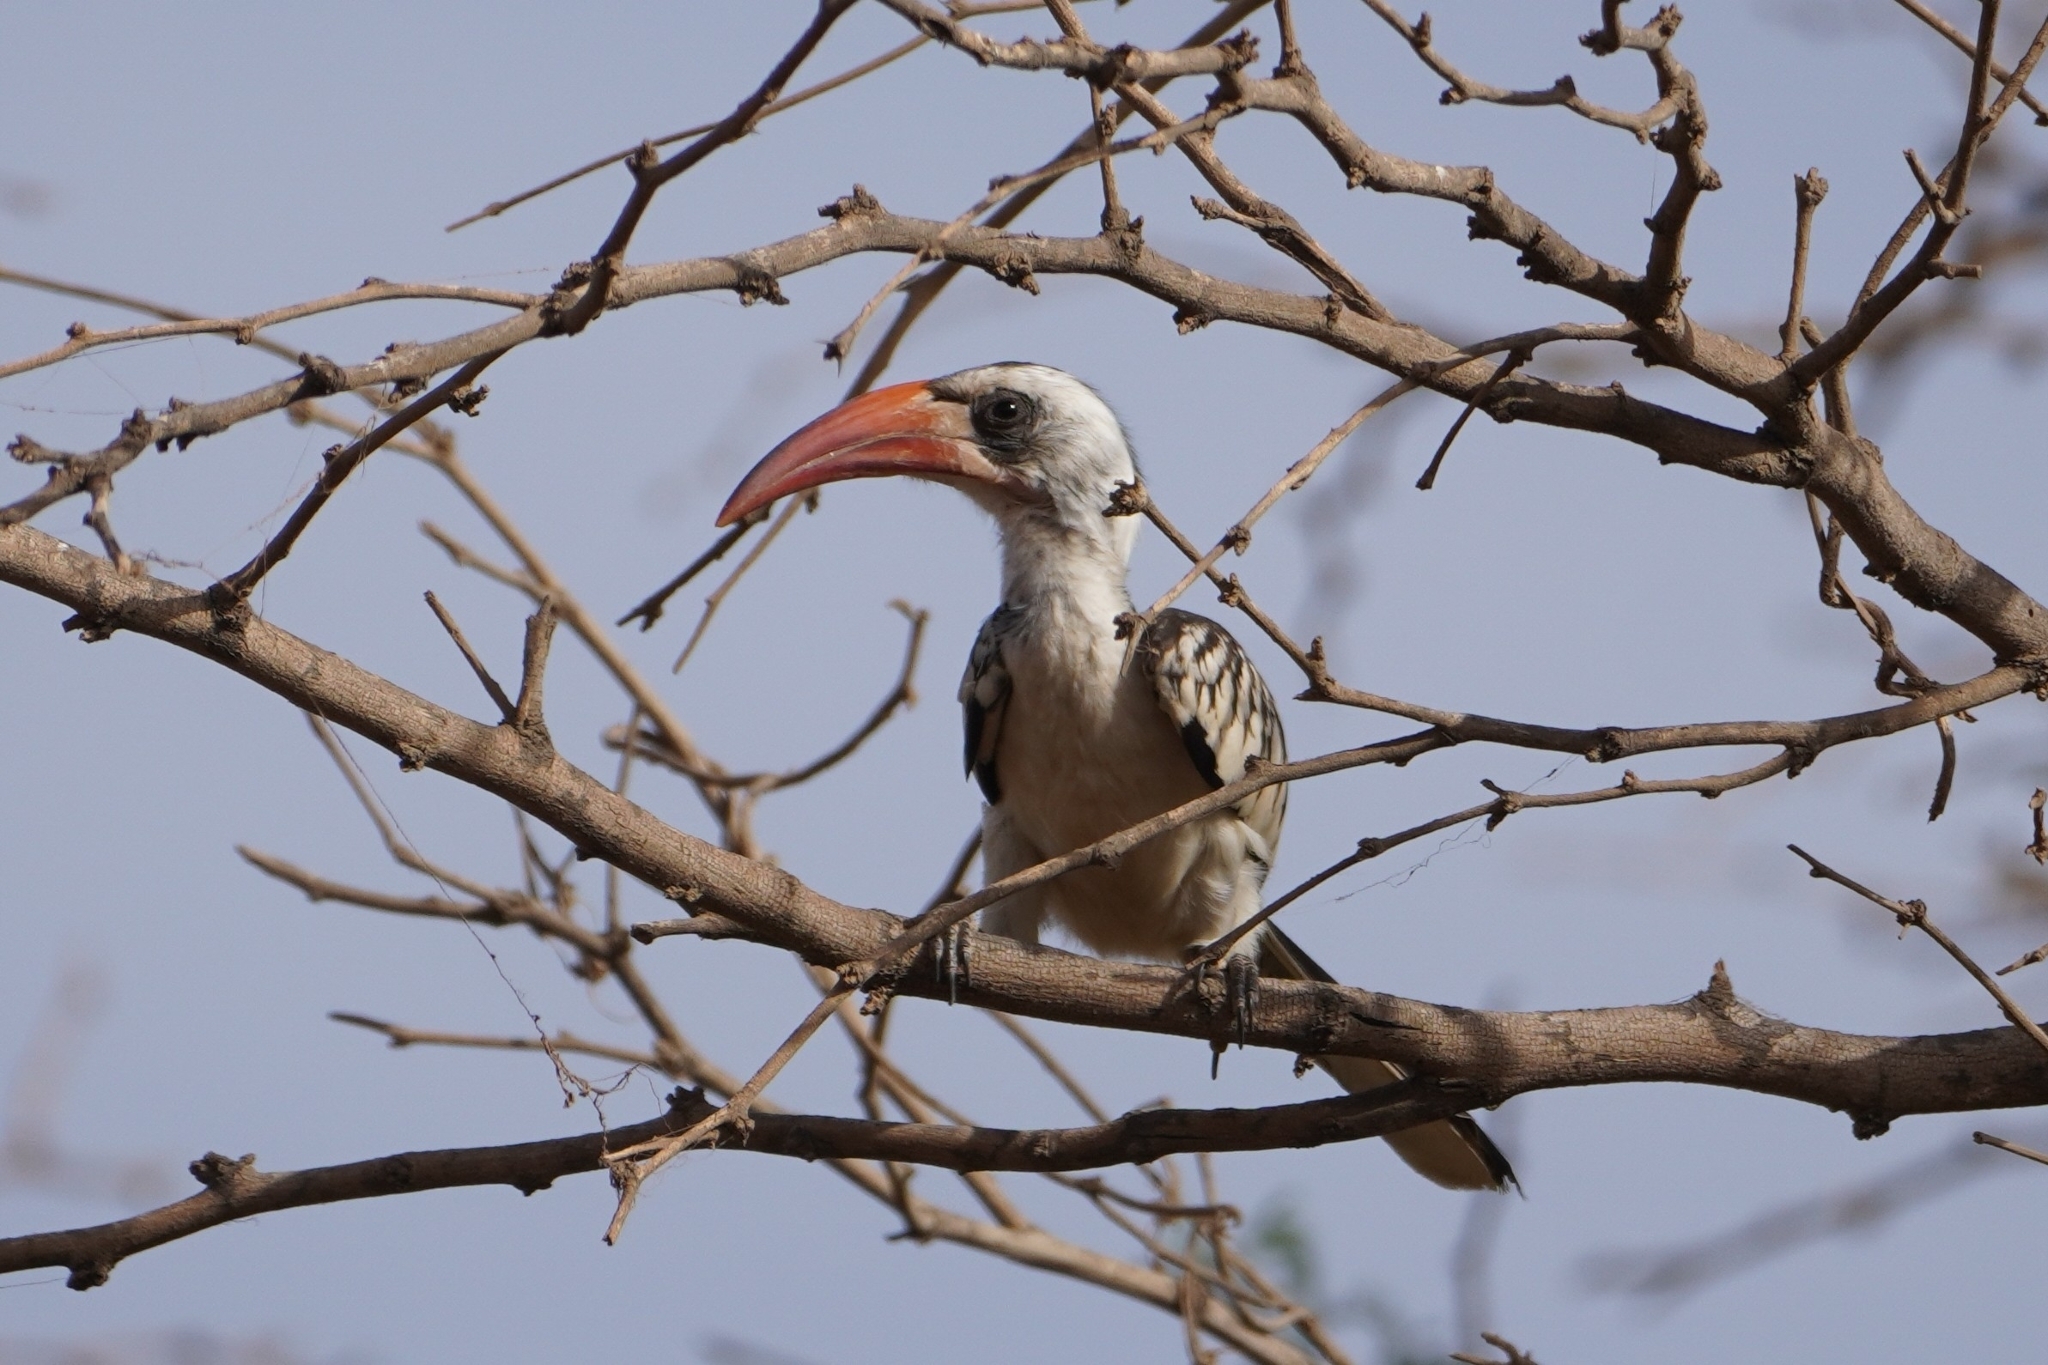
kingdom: Animalia
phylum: Chordata
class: Aves
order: Bucerotiformes
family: Bucerotidae
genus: Tockus
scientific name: Tockus kempi
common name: Western red-billed hornbill
